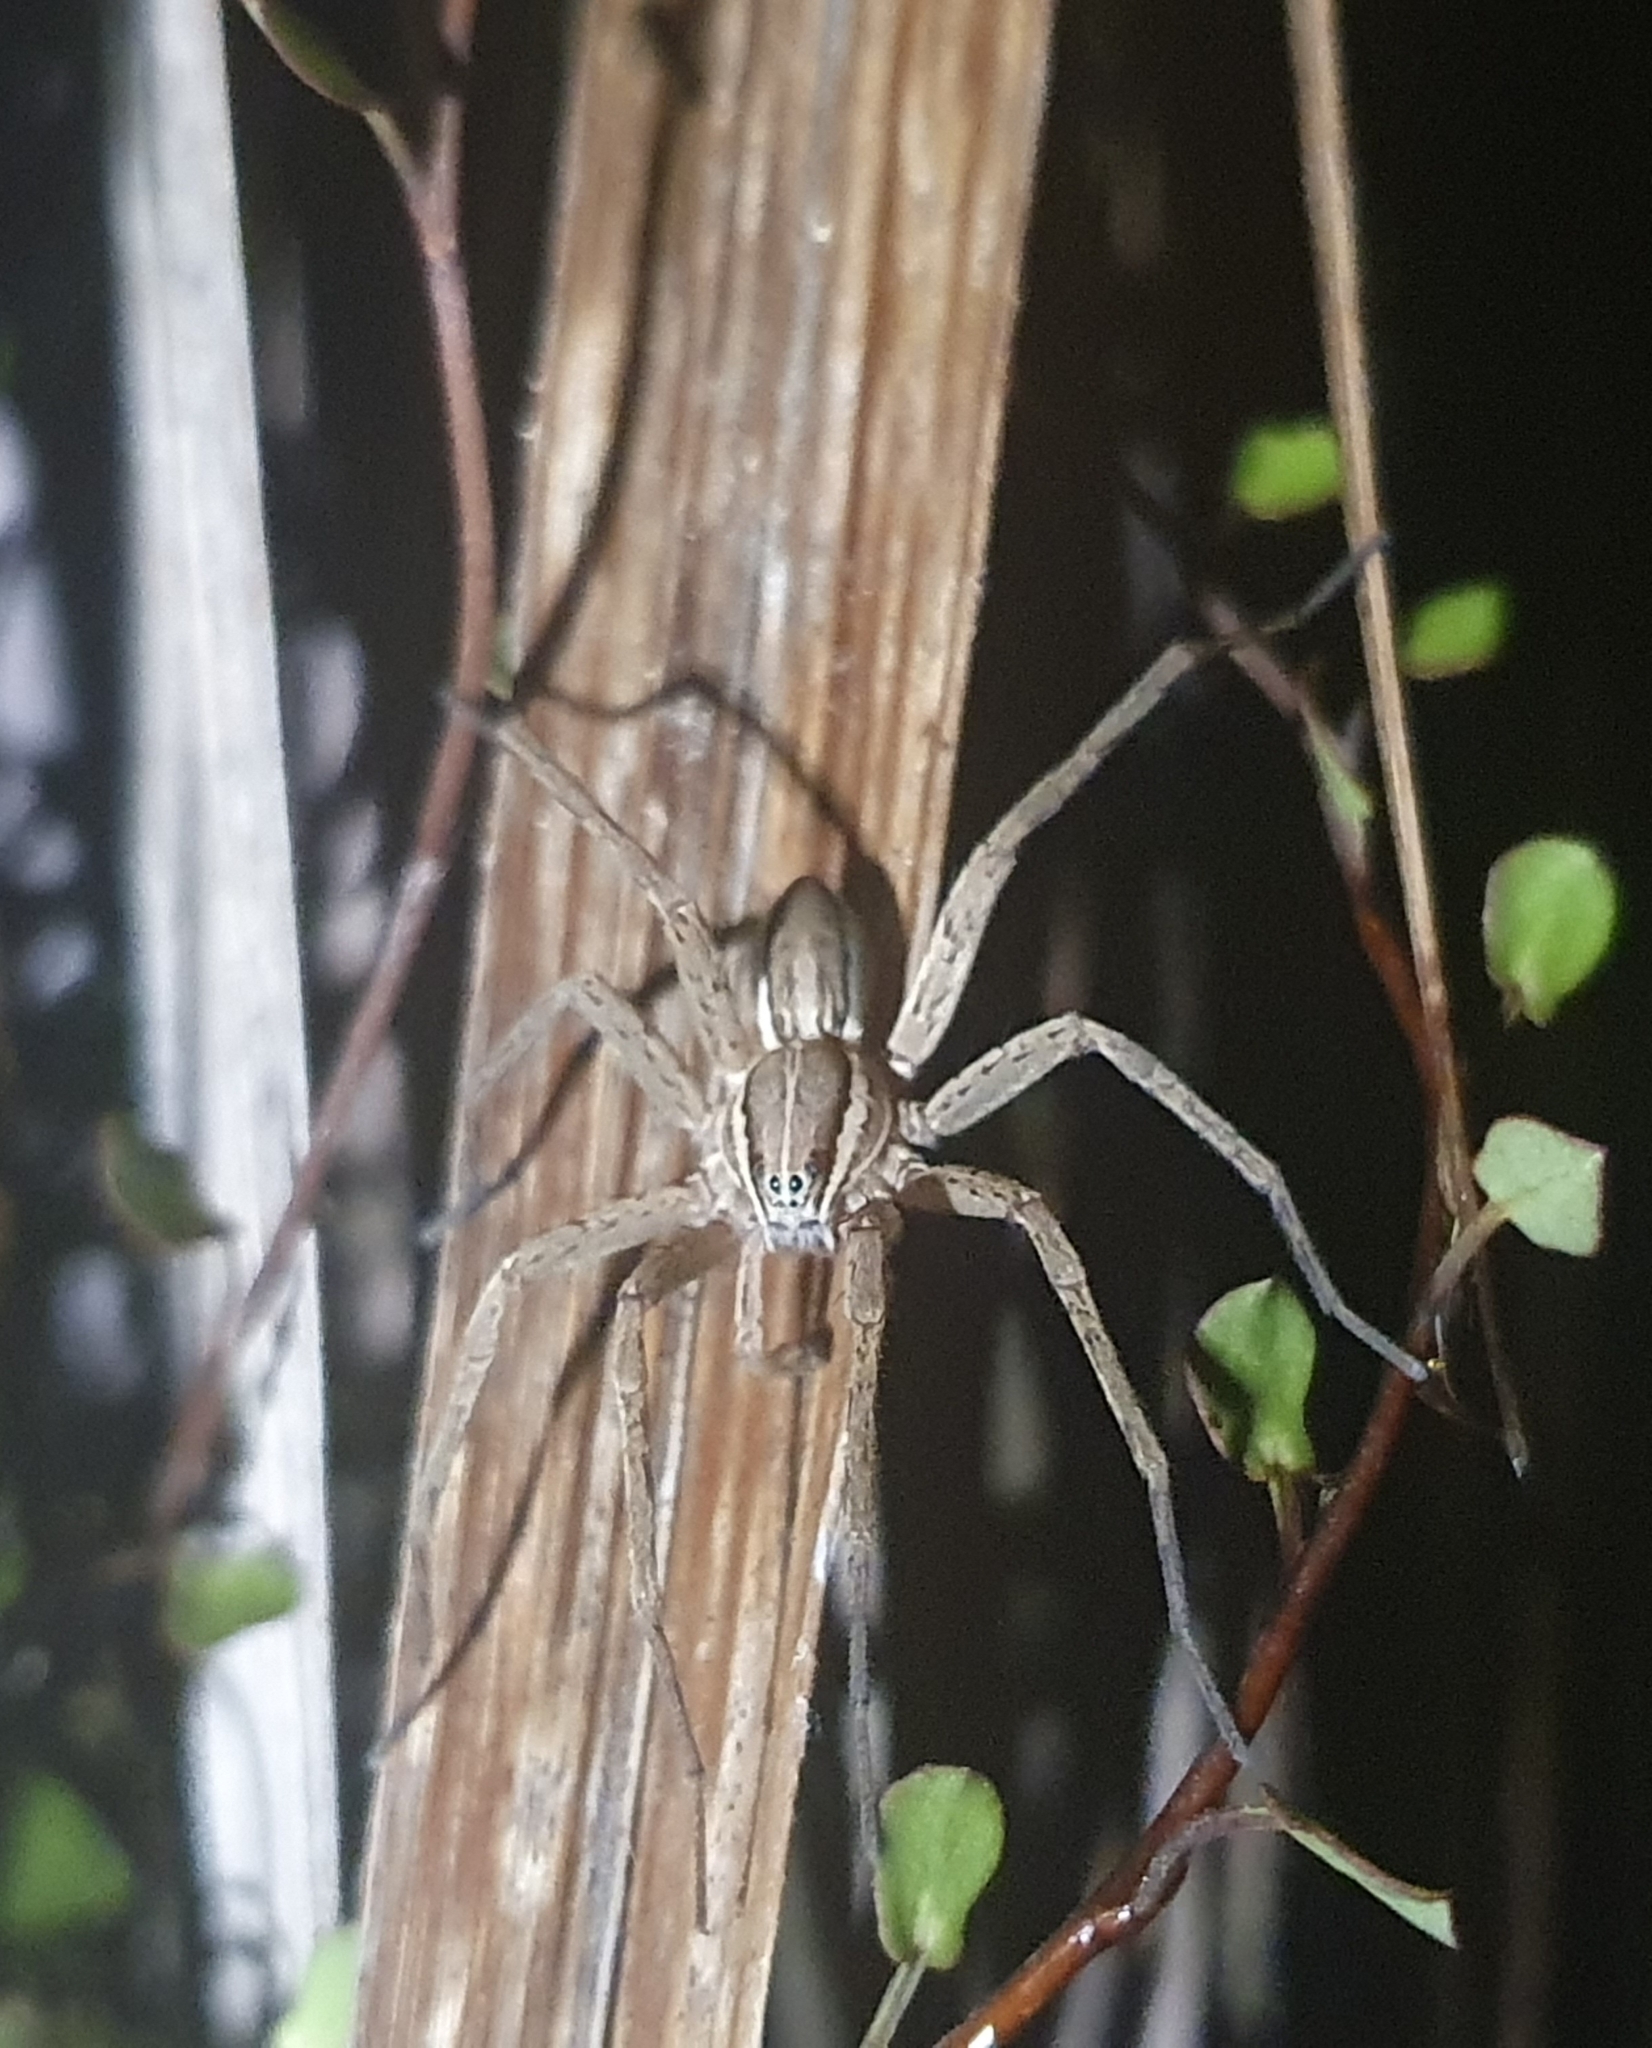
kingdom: Animalia
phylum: Arthropoda
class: Arachnida
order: Araneae
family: Pisauridae
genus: Dolomedes
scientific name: Dolomedes minor
